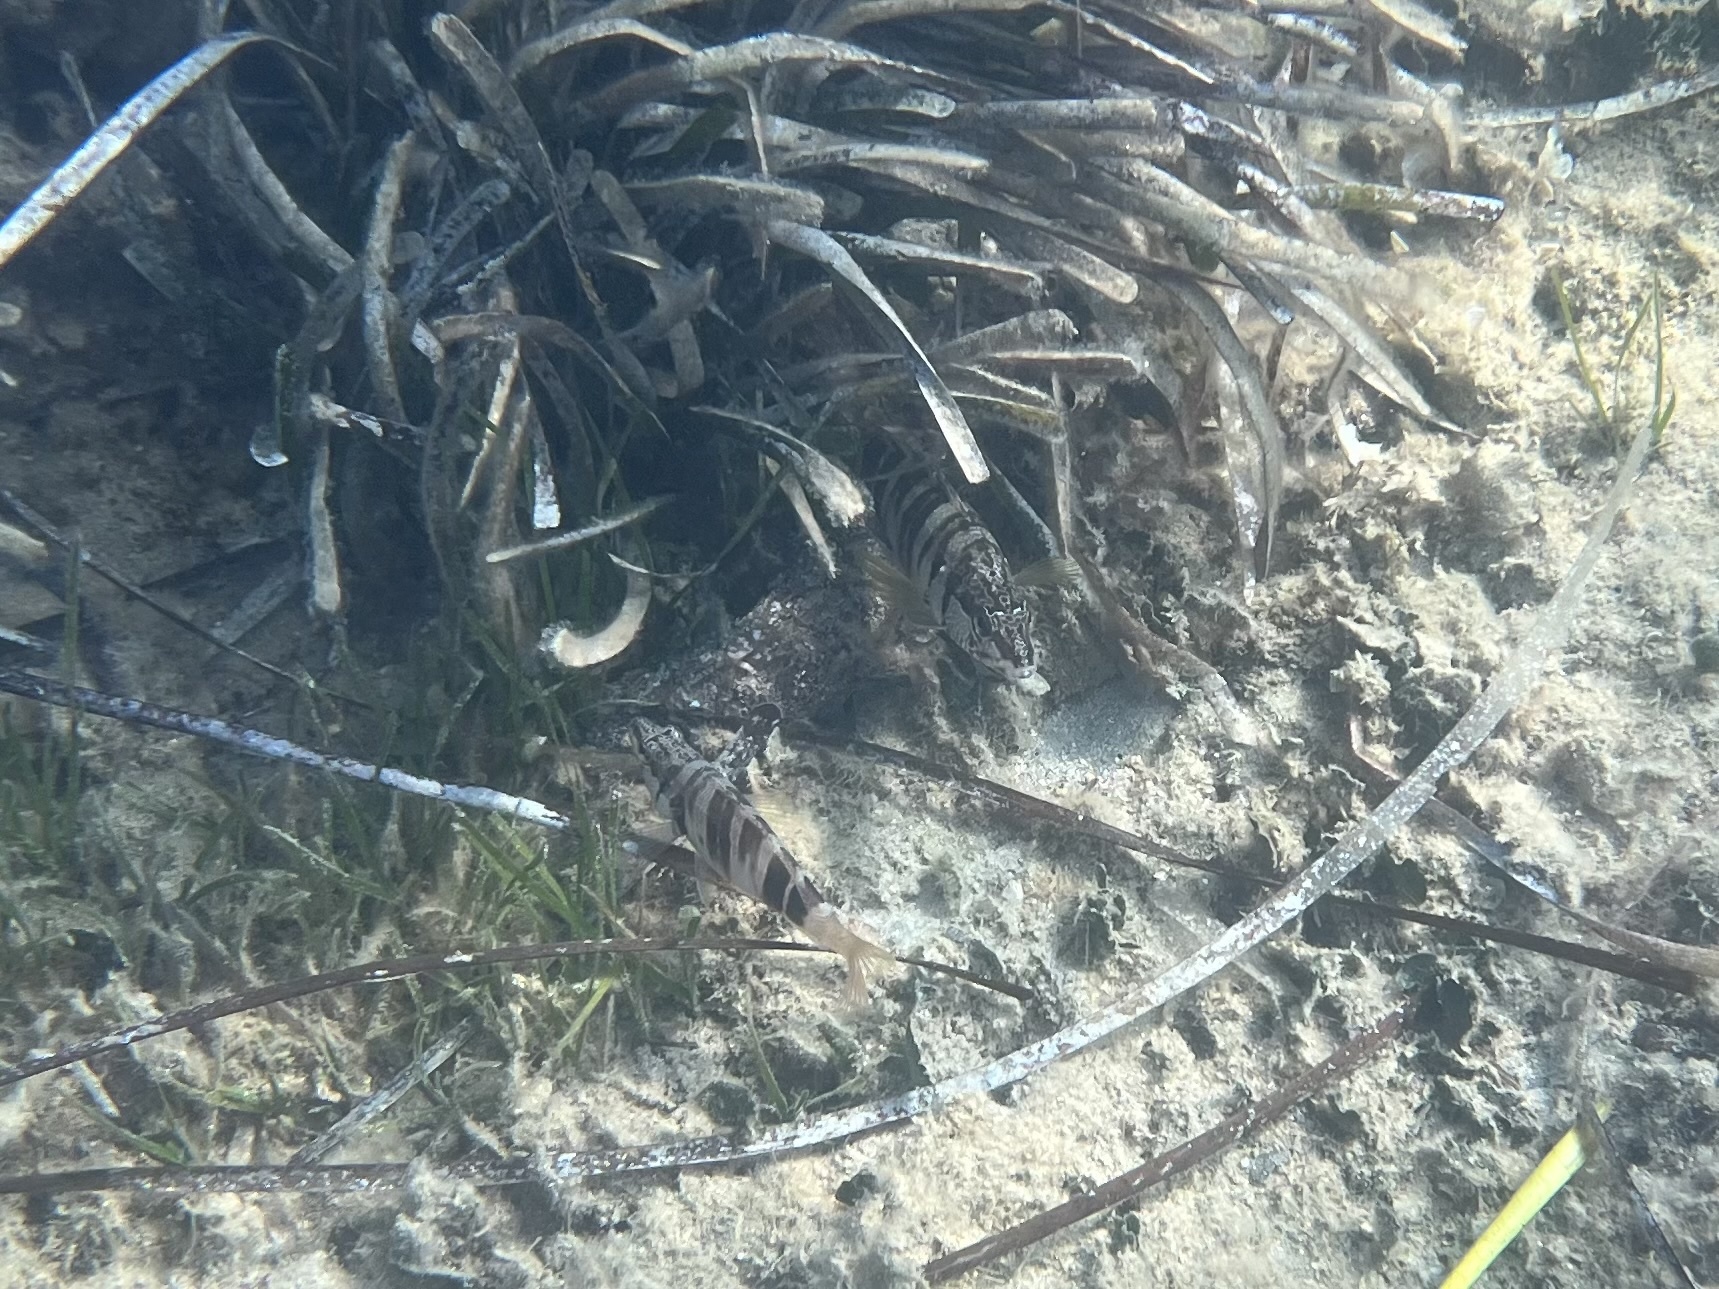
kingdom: Animalia
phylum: Chordata
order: Perciformes
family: Serranidae
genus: Serranus
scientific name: Serranus scriba
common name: Painted comber
